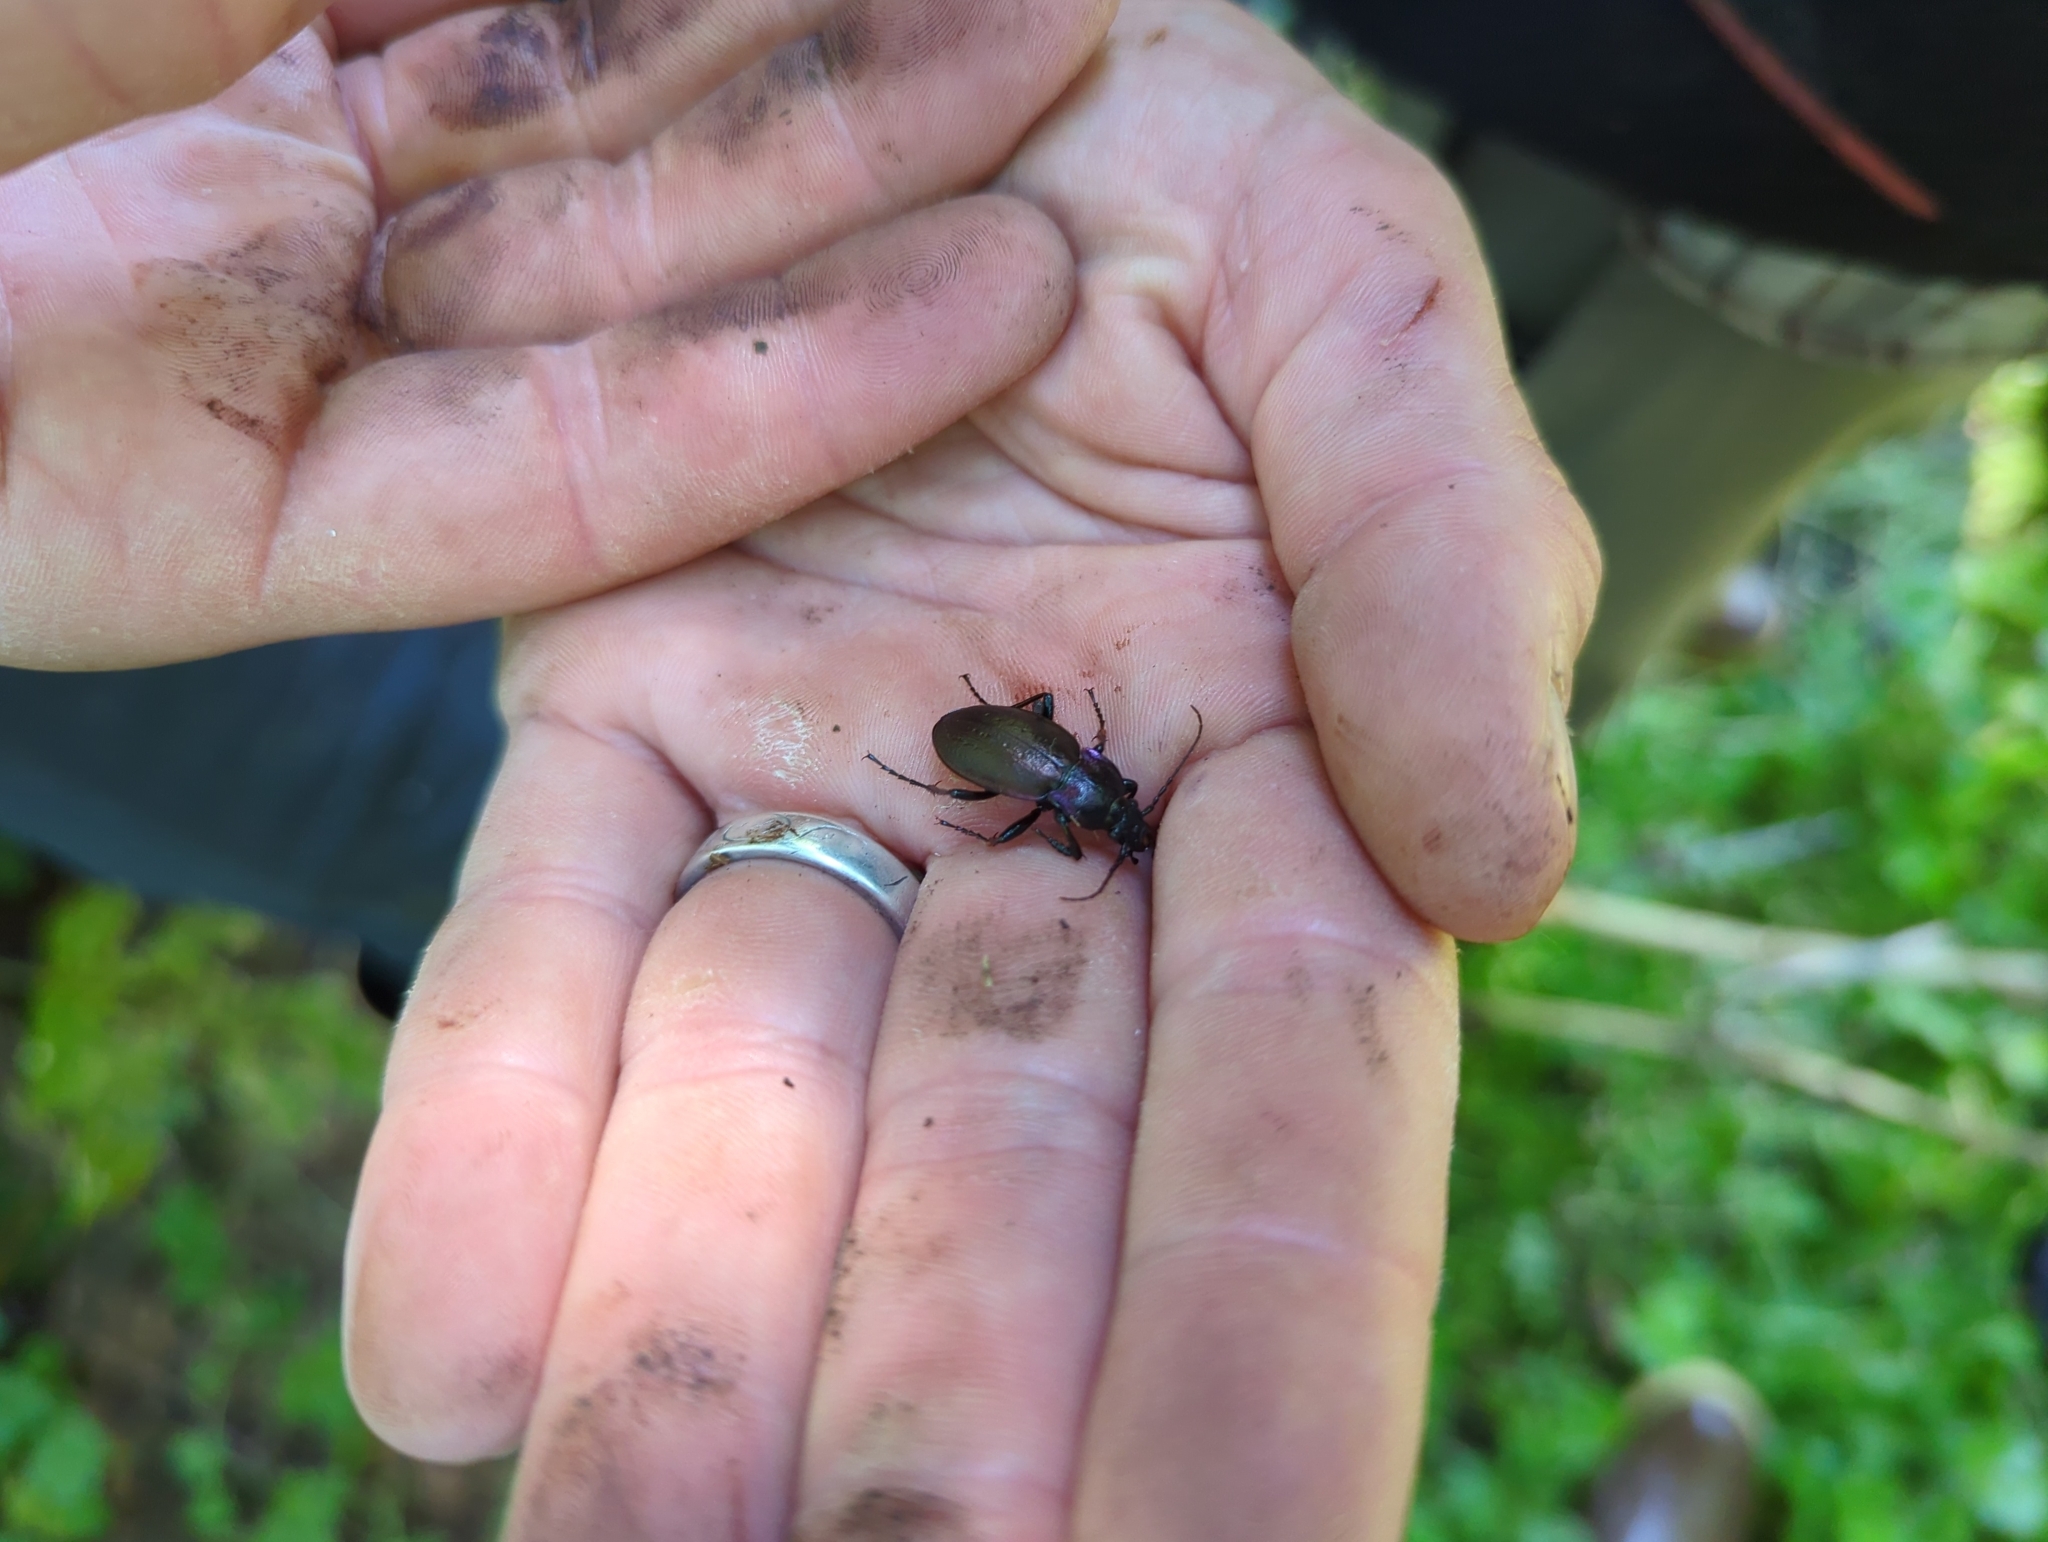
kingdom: Animalia
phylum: Arthropoda
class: Insecta
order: Coleoptera
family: Carabidae
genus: Carabus
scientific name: Carabus nemoralis
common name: European ground beetle
